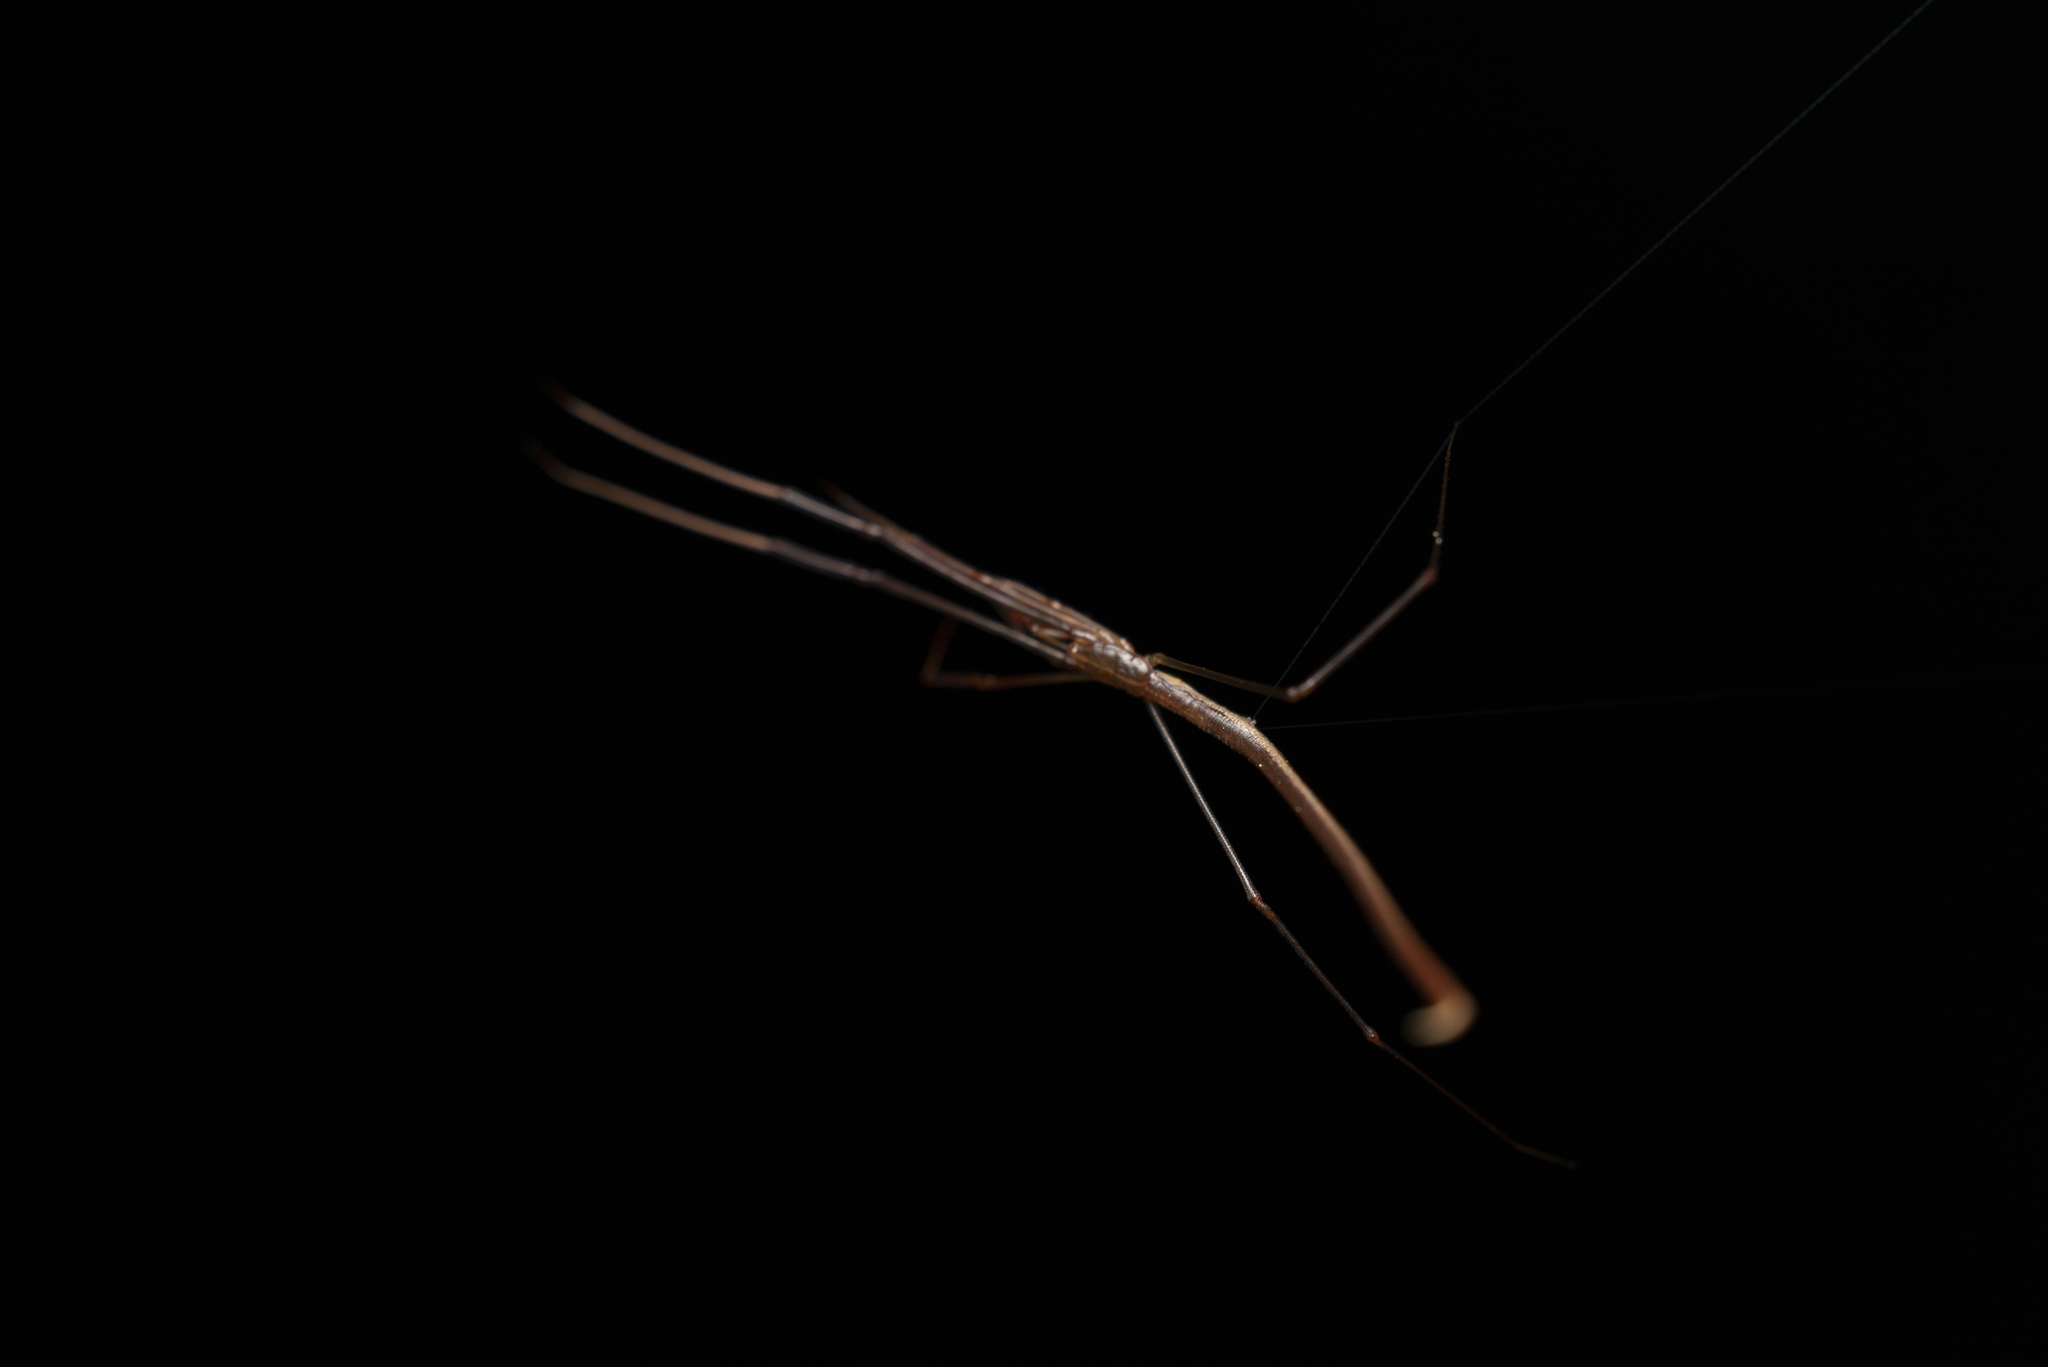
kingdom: Animalia
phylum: Arthropoda
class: Arachnida
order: Araneae
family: Theridiidae
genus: Ariamnes
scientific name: Ariamnes cylindrogaster
